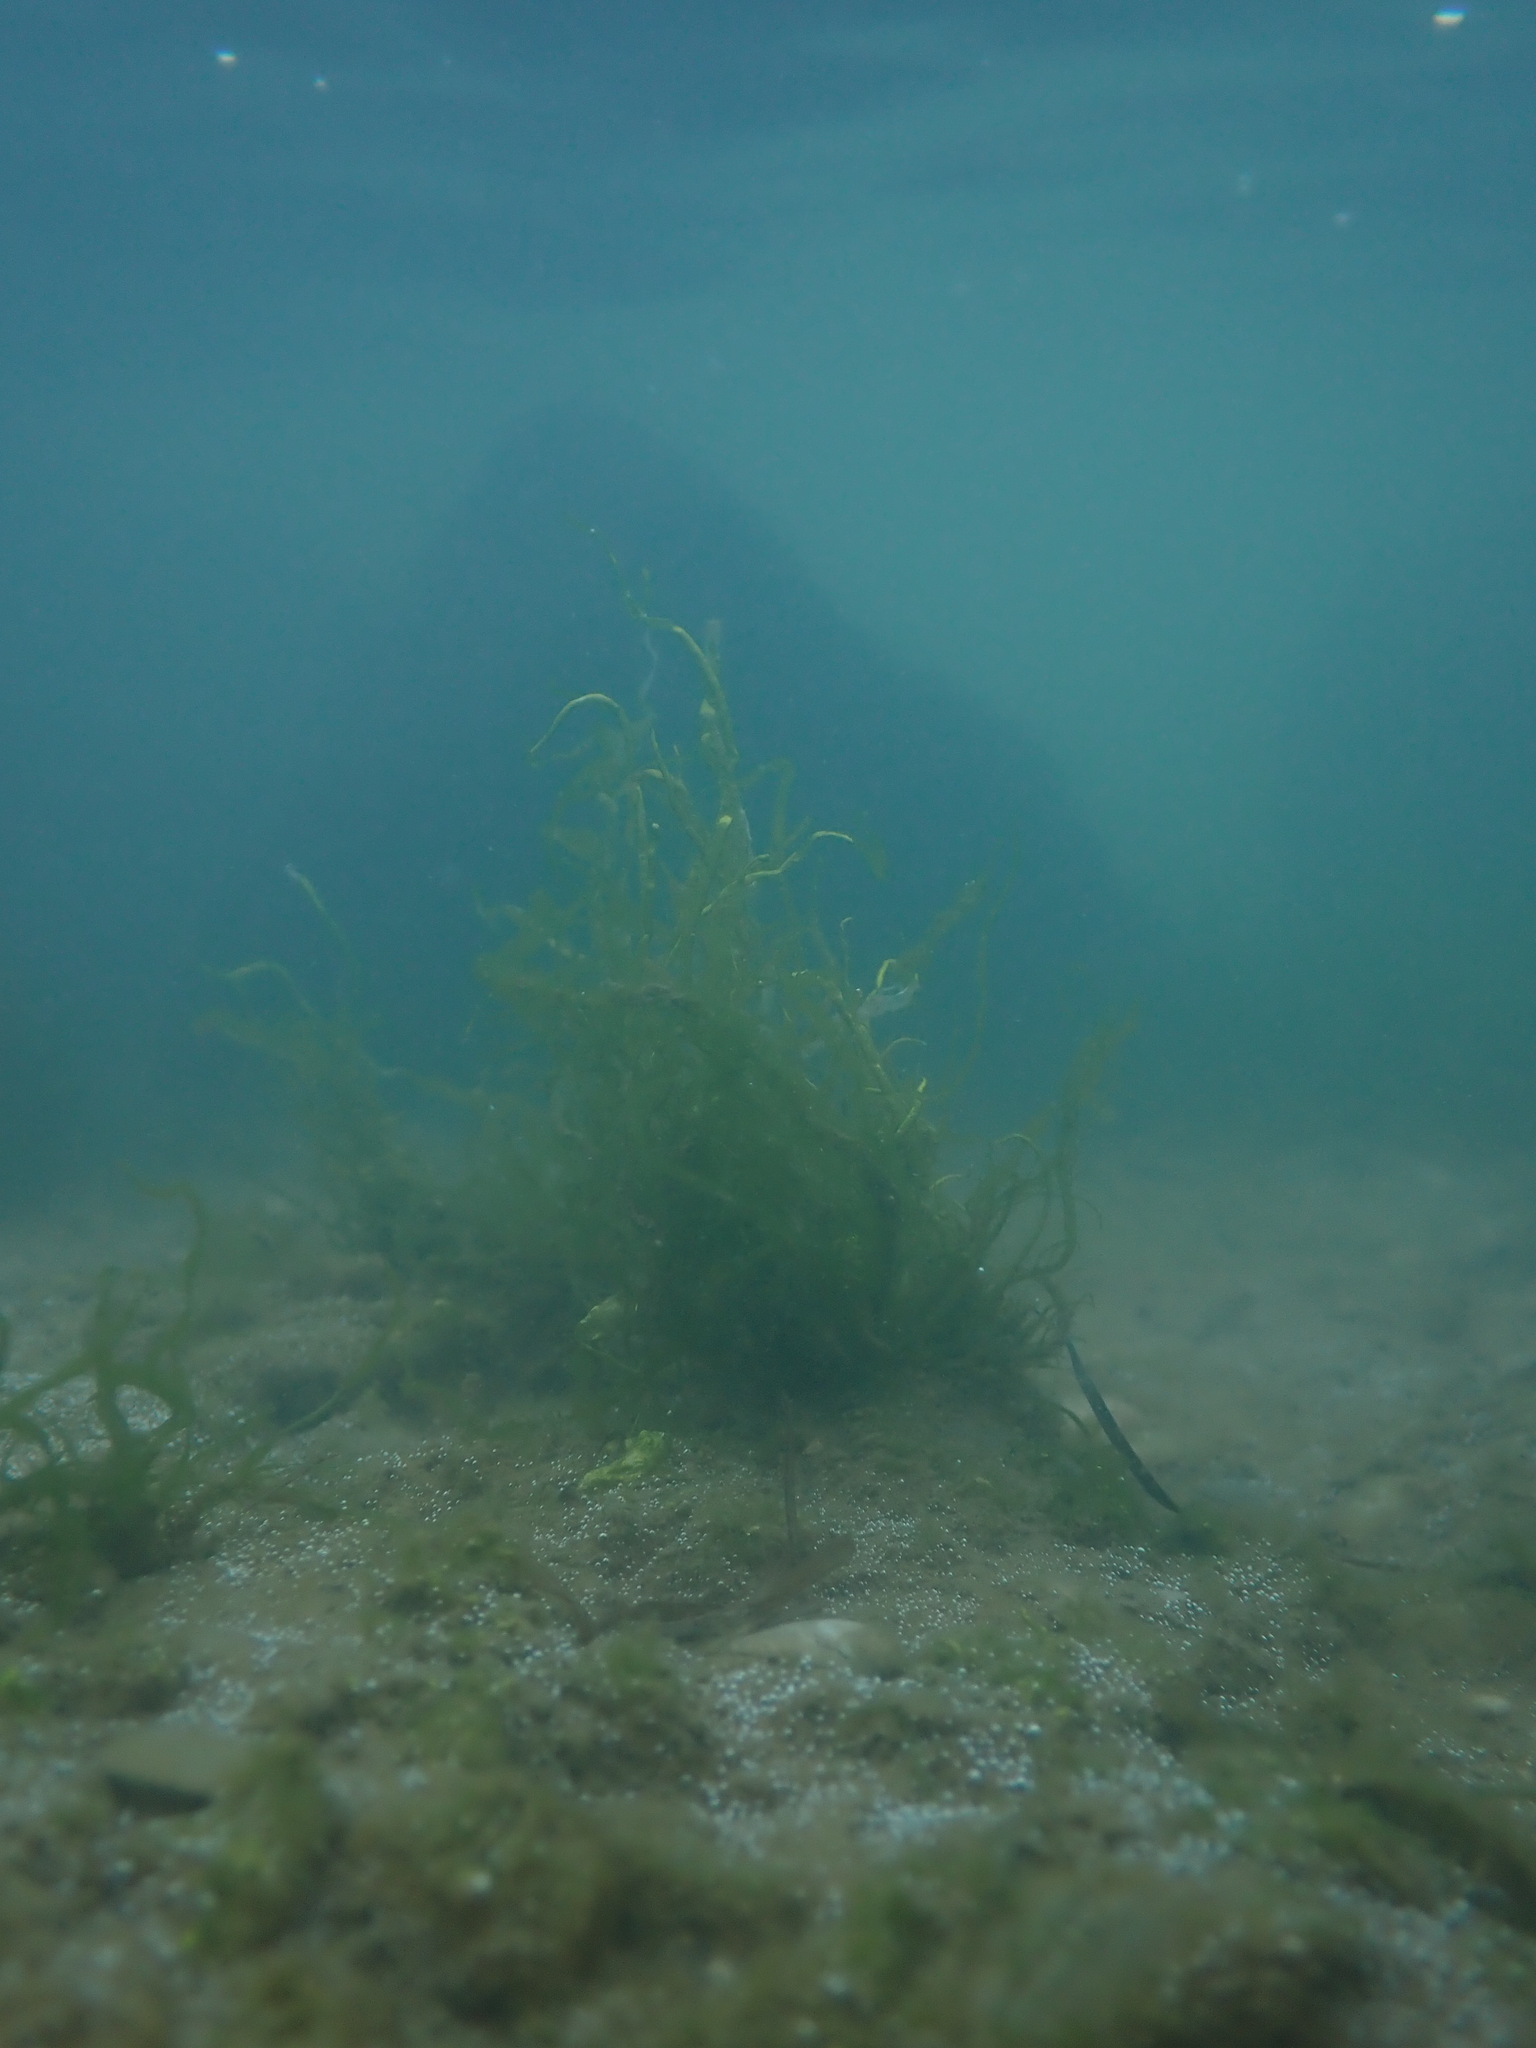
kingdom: Plantae
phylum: Chlorophyta
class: Ulvophyceae
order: Ulvales
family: Ulvaceae
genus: Ulva
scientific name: Ulva intestinalis
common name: Gut weed
